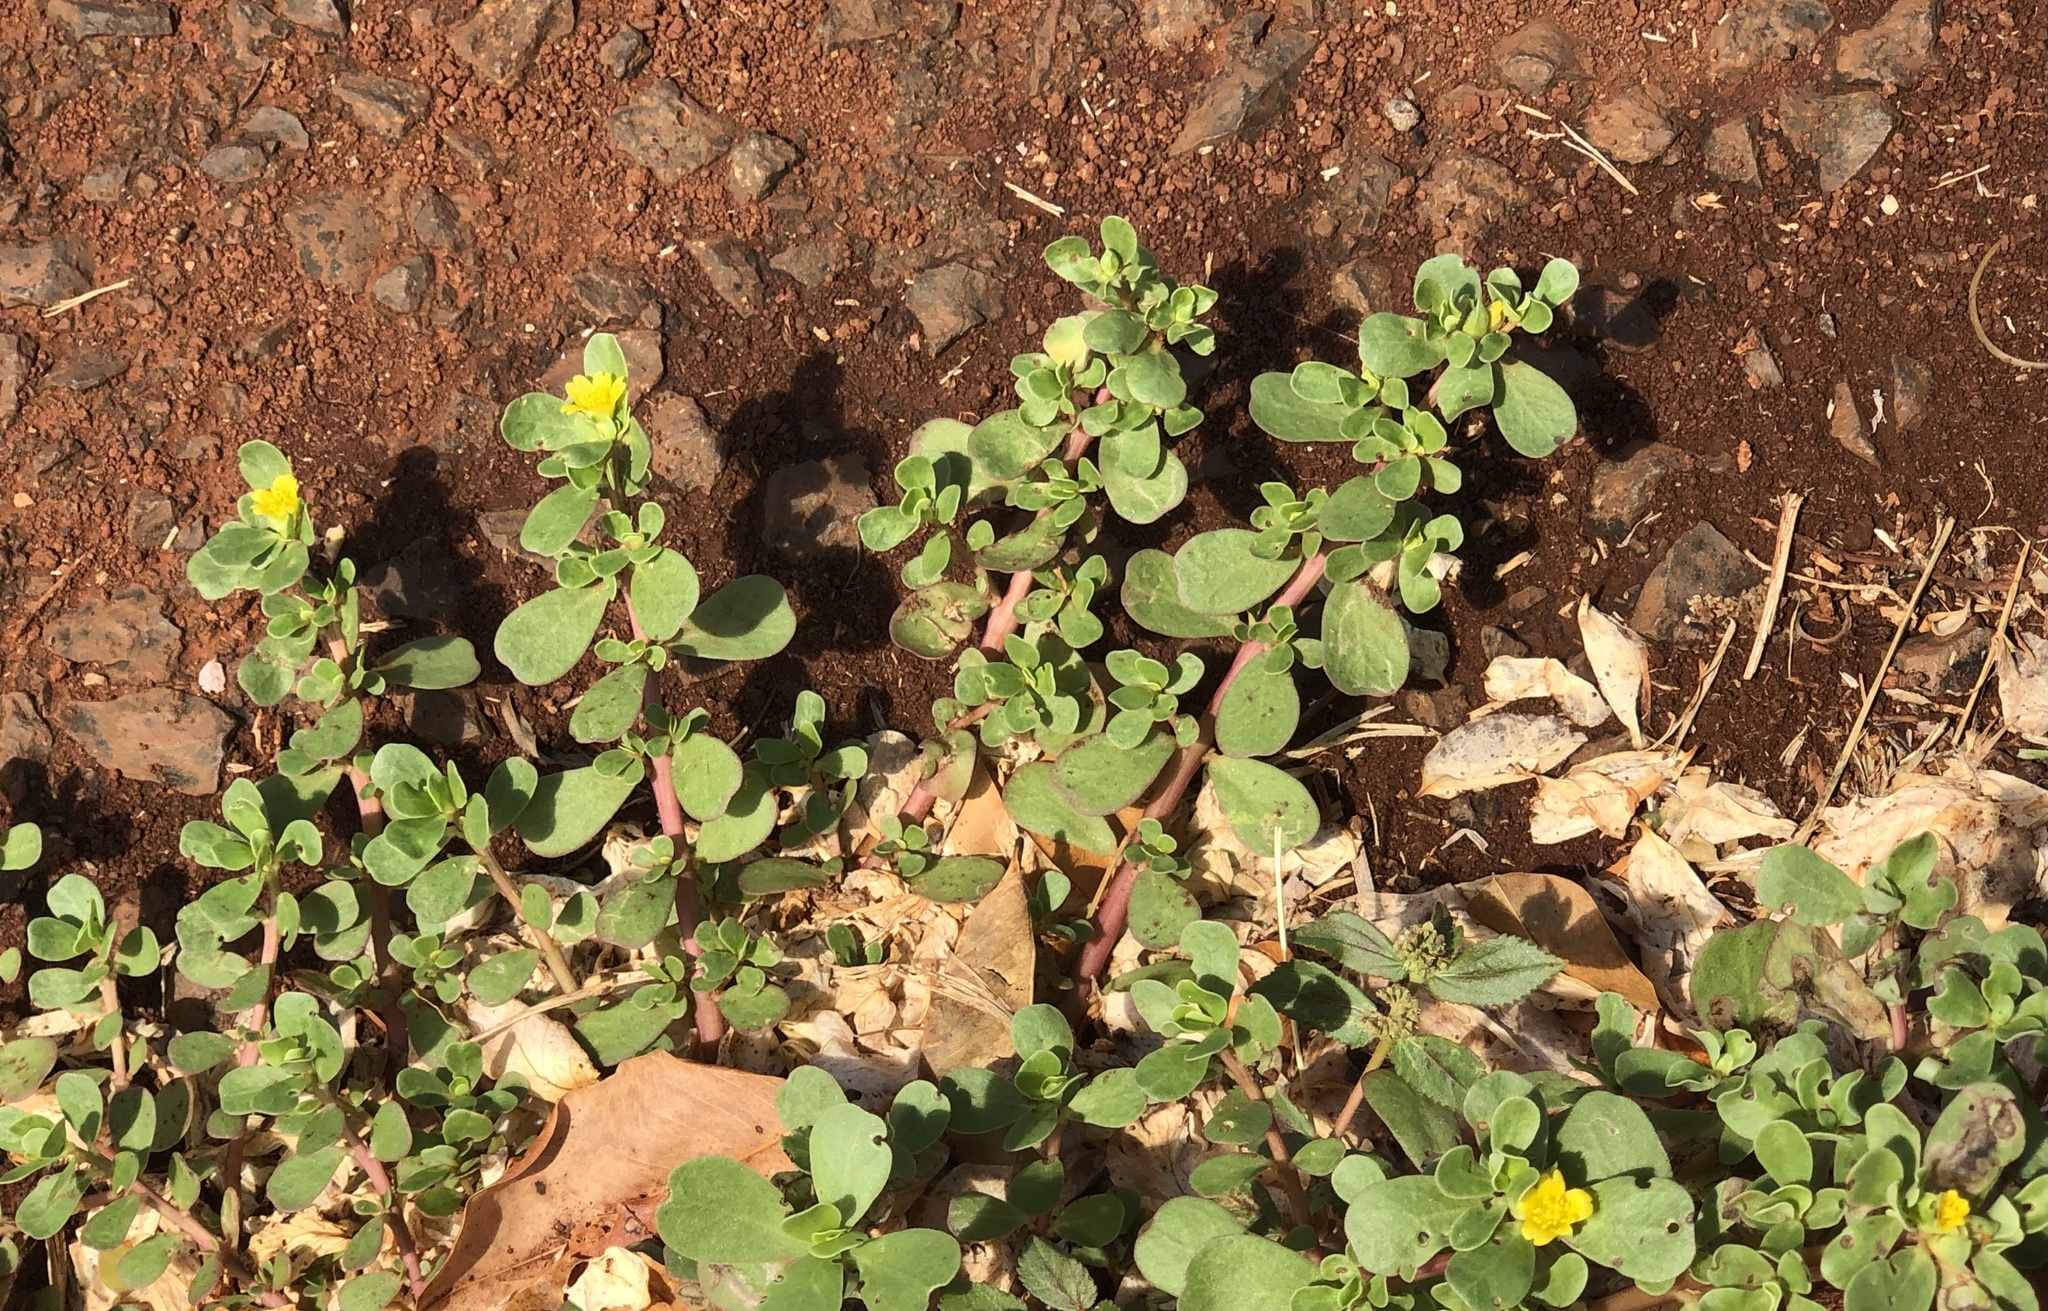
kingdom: Plantae
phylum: Tracheophyta
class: Magnoliopsida
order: Caryophyllales
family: Portulacaceae
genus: Portulaca
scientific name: Portulaca oleracea
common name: Common purslane
